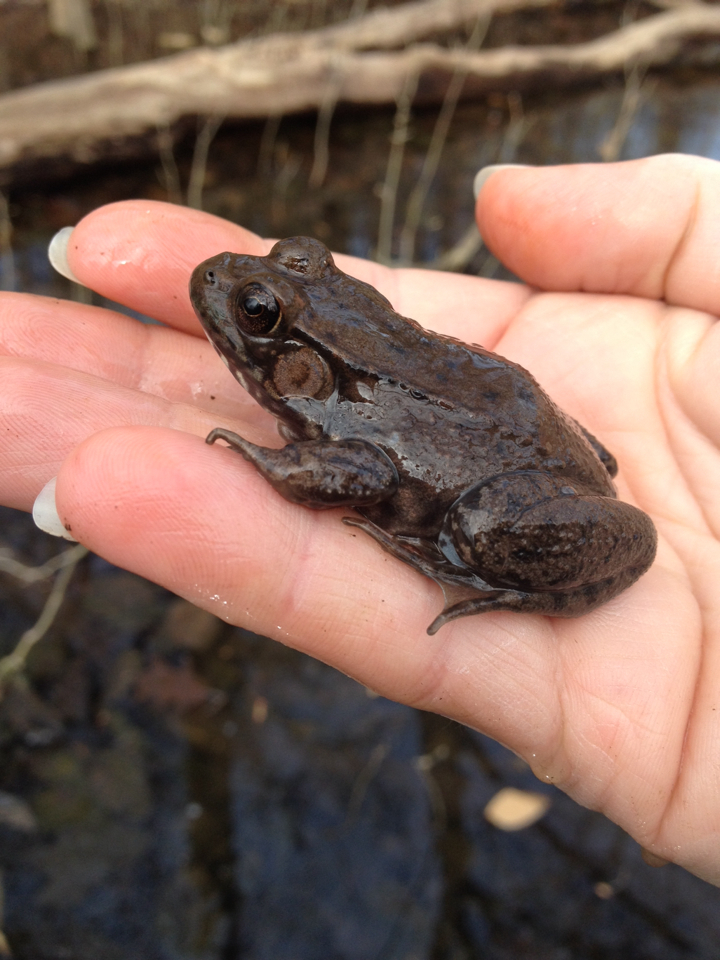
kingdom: Animalia
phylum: Chordata
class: Amphibia
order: Anura
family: Ranidae
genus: Lithobates
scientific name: Lithobates clamitans
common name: Green frog
